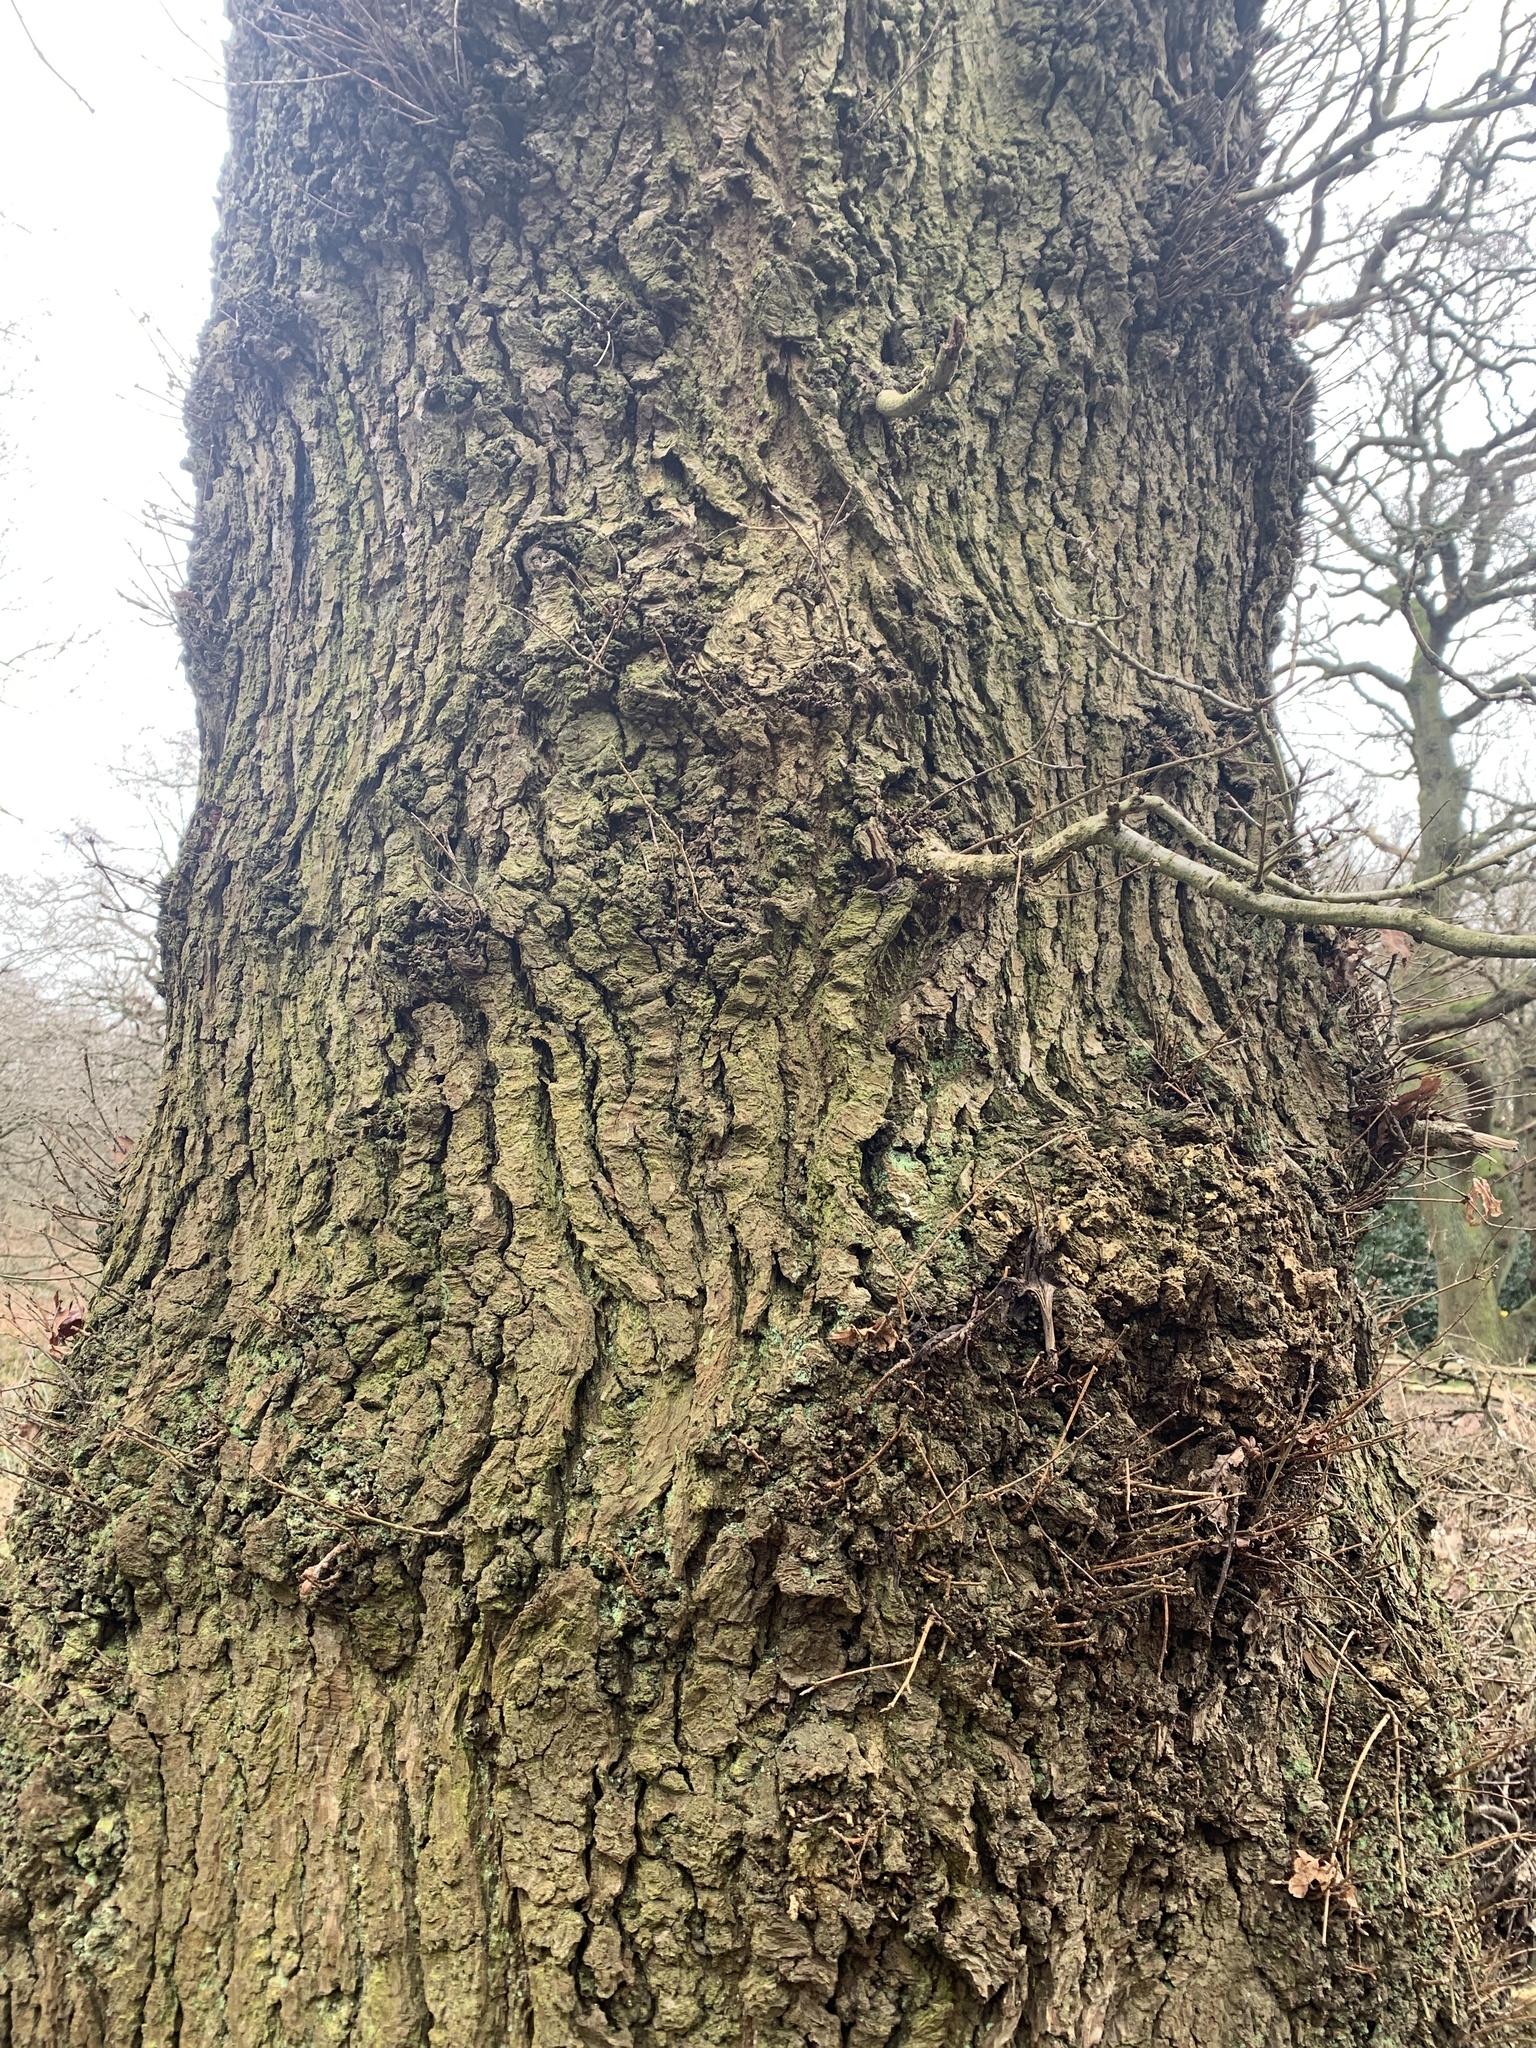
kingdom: Plantae
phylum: Tracheophyta
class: Magnoliopsida
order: Fagales
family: Fagaceae
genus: Quercus
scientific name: Quercus robur
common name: Pedunculate oak
